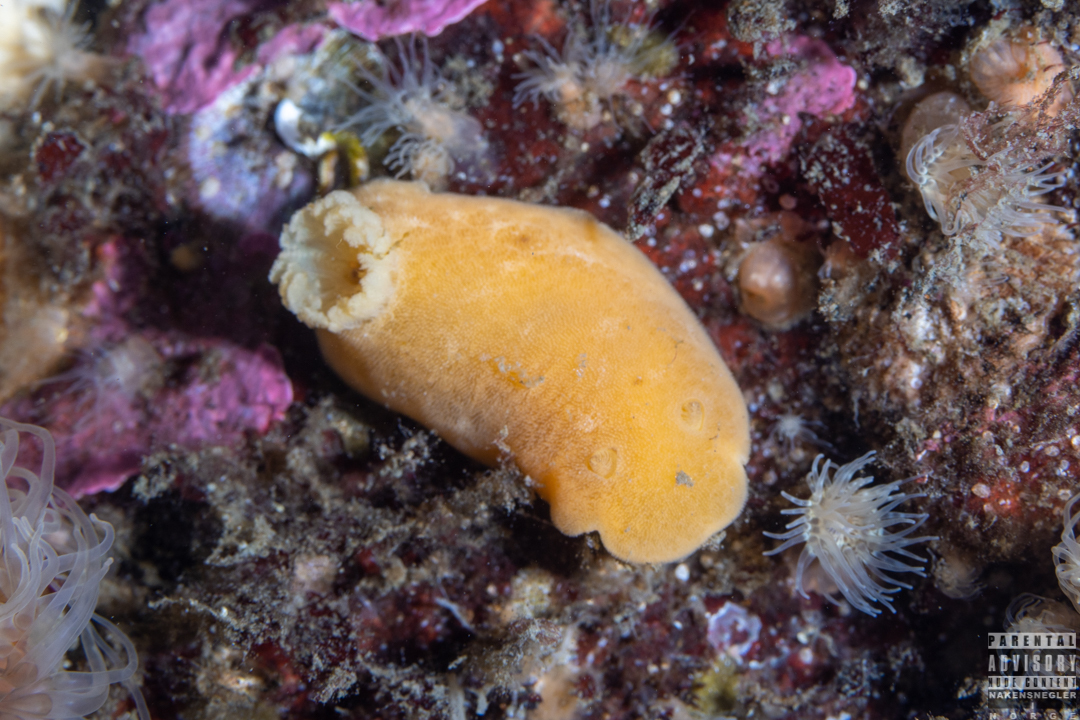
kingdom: Animalia
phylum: Mollusca
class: Gastropoda
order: Nudibranchia
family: Discodorididae
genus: Jorunna
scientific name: Jorunna tomentosa
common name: Grey sea slug
